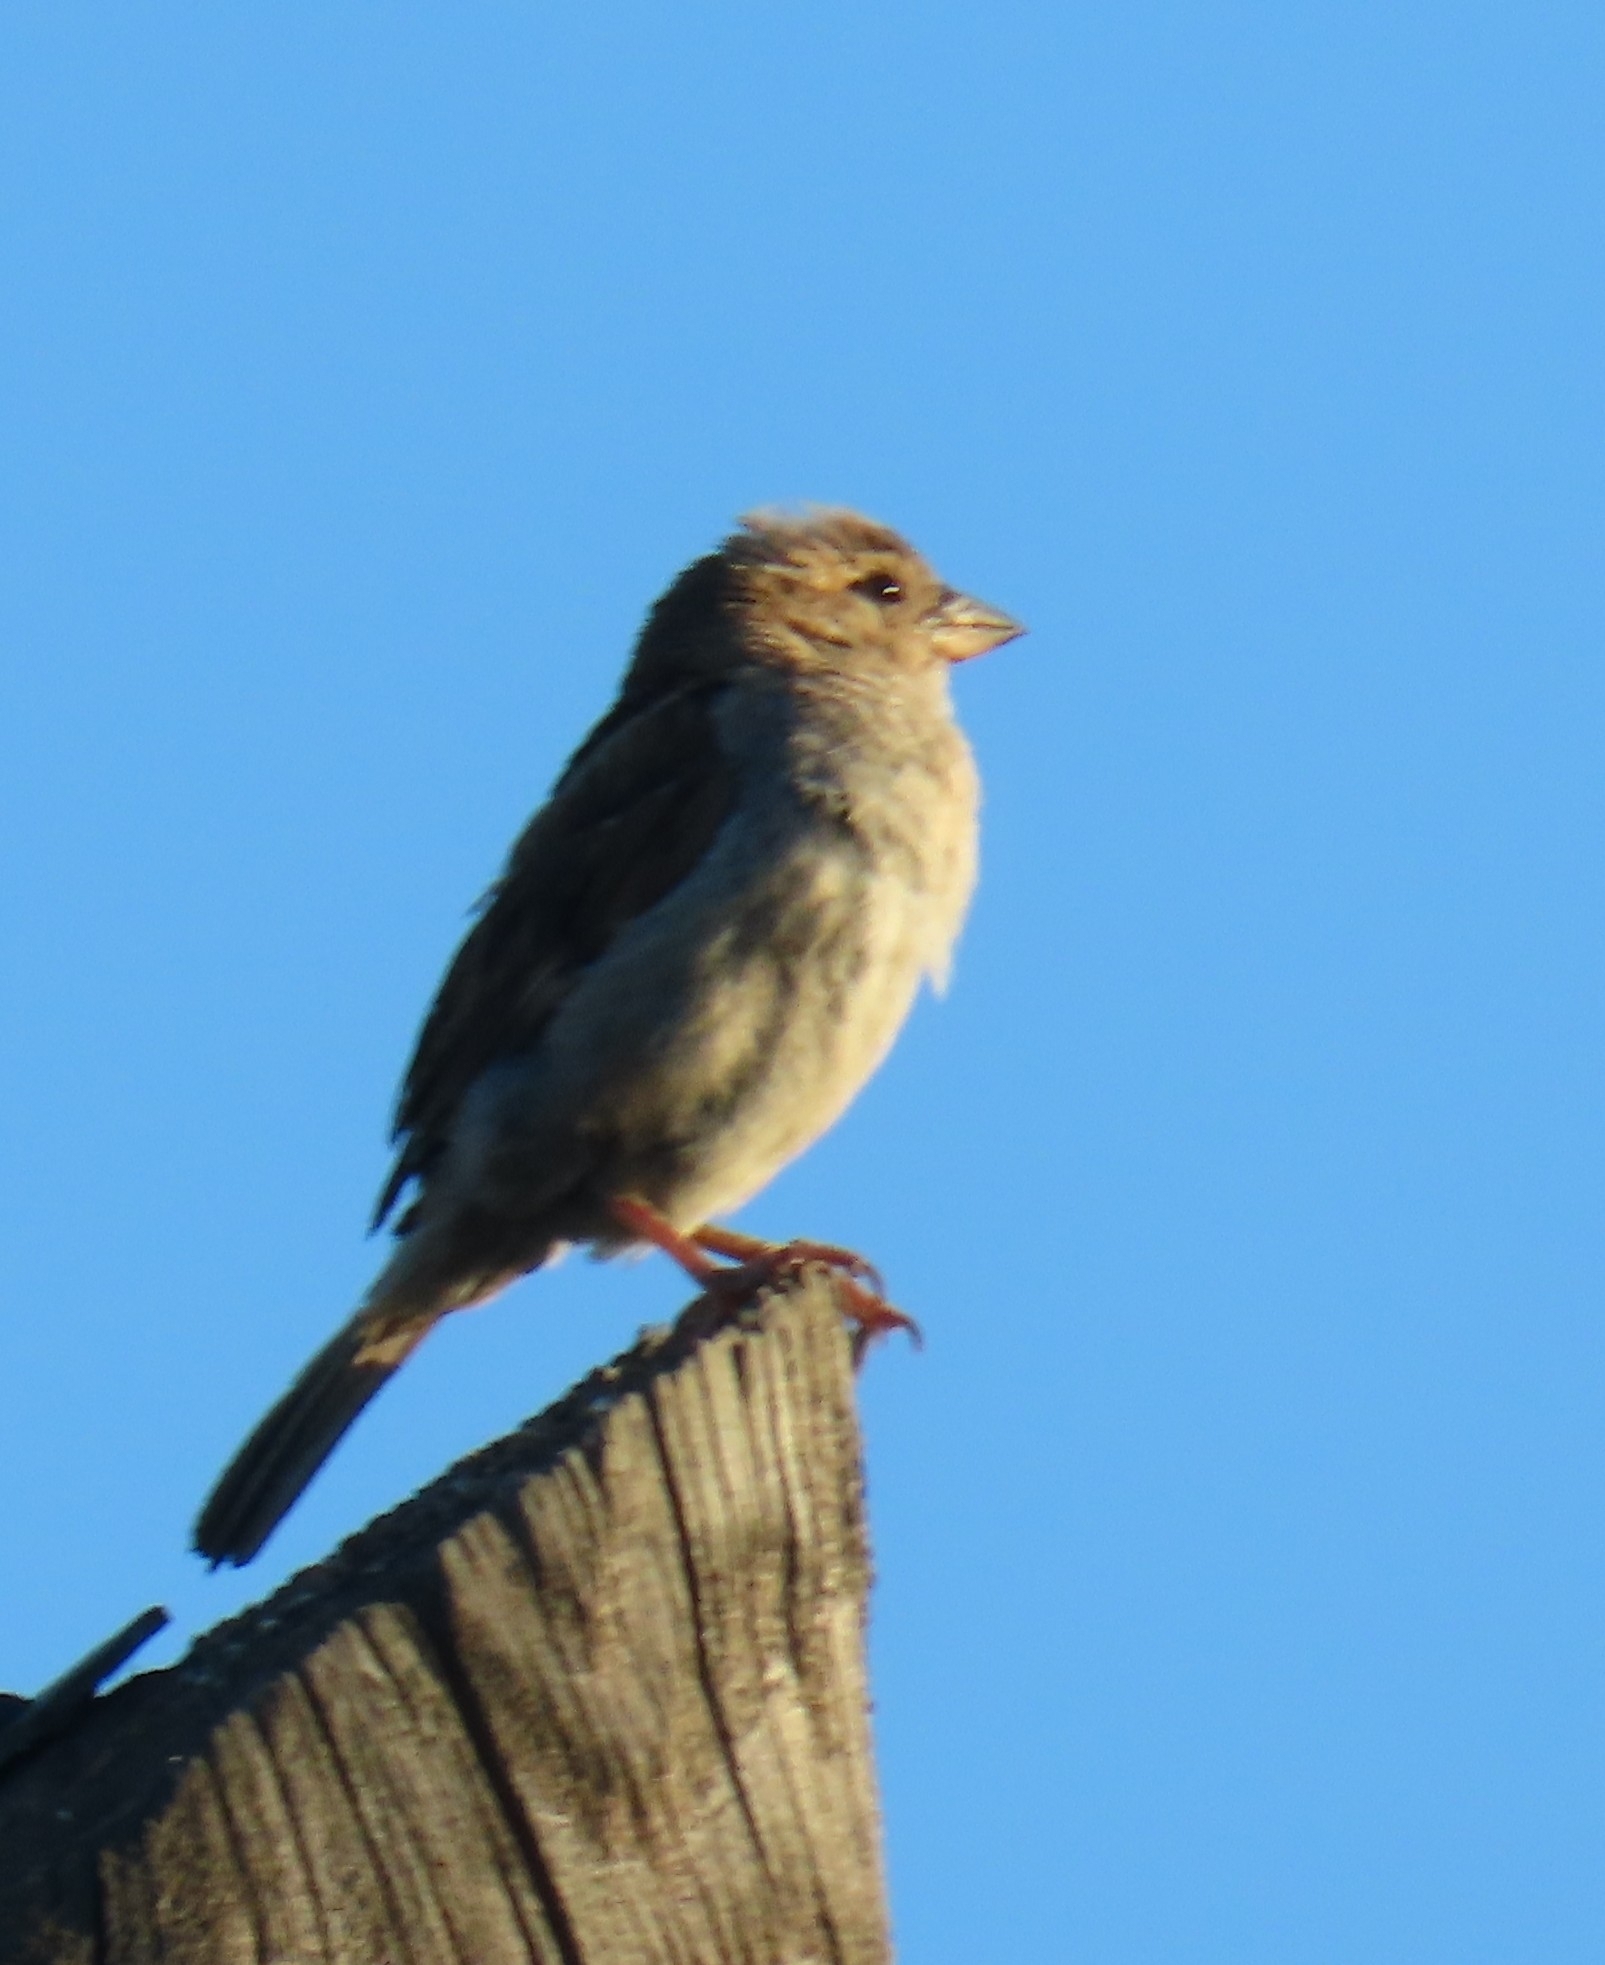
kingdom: Animalia
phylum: Chordata
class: Aves
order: Passeriformes
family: Passeridae
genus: Passer
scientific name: Passer domesticus
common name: House sparrow
